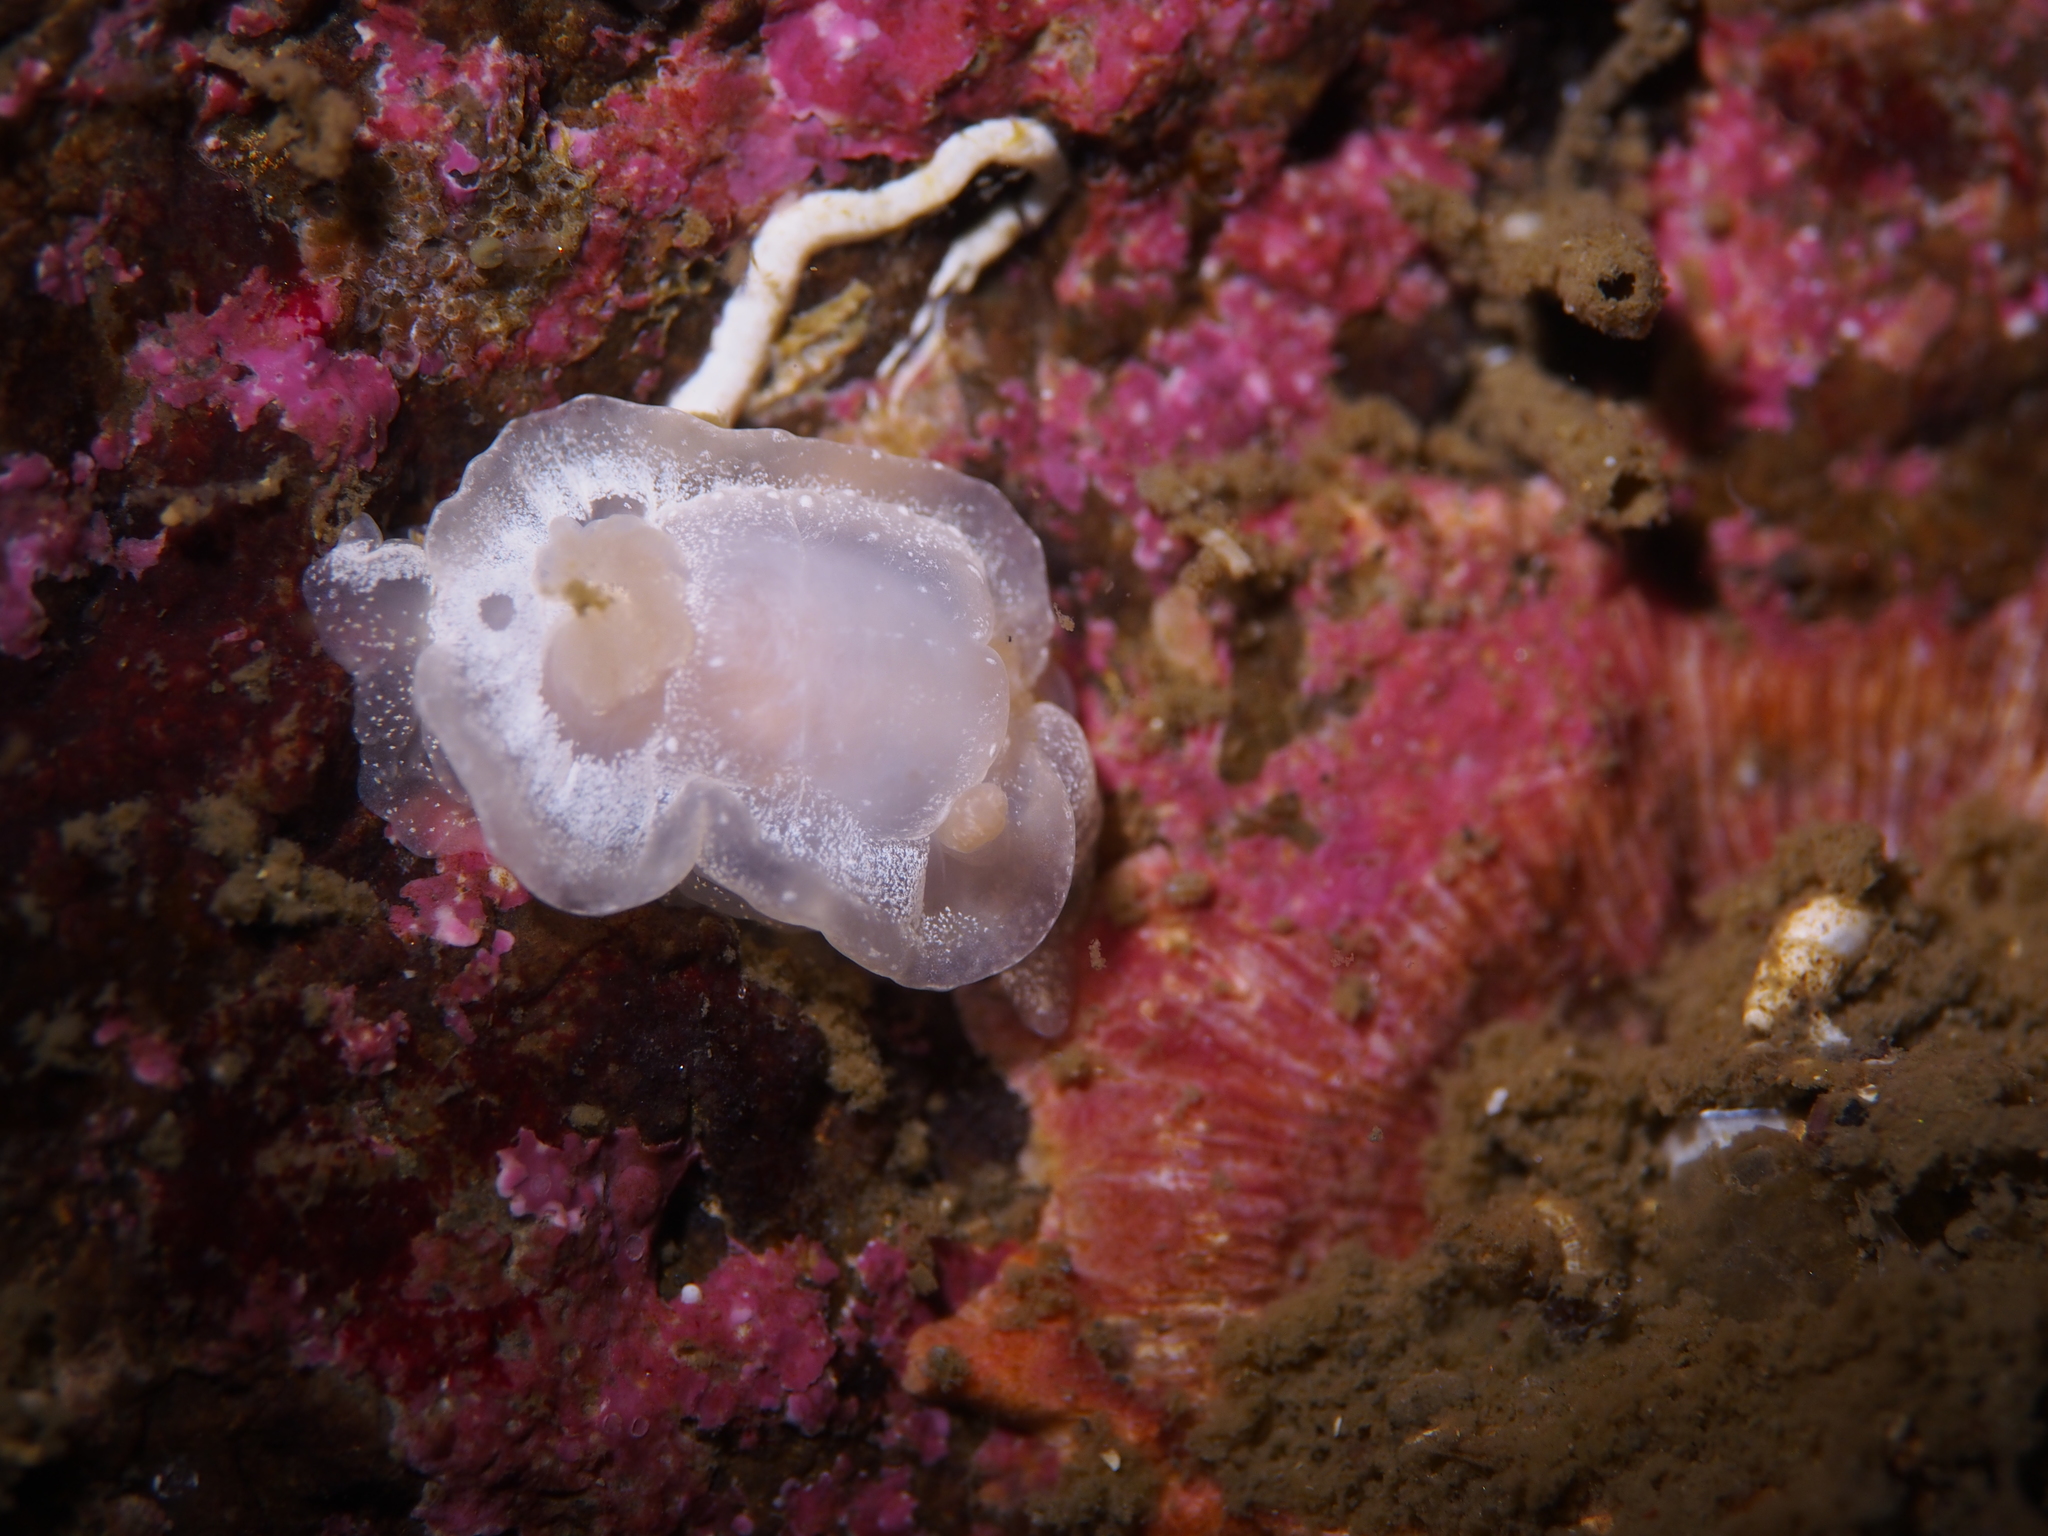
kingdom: Animalia
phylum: Mollusca
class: Gastropoda
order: Nudibranchia
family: Goniodorididae
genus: Okenia
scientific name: Okenia
